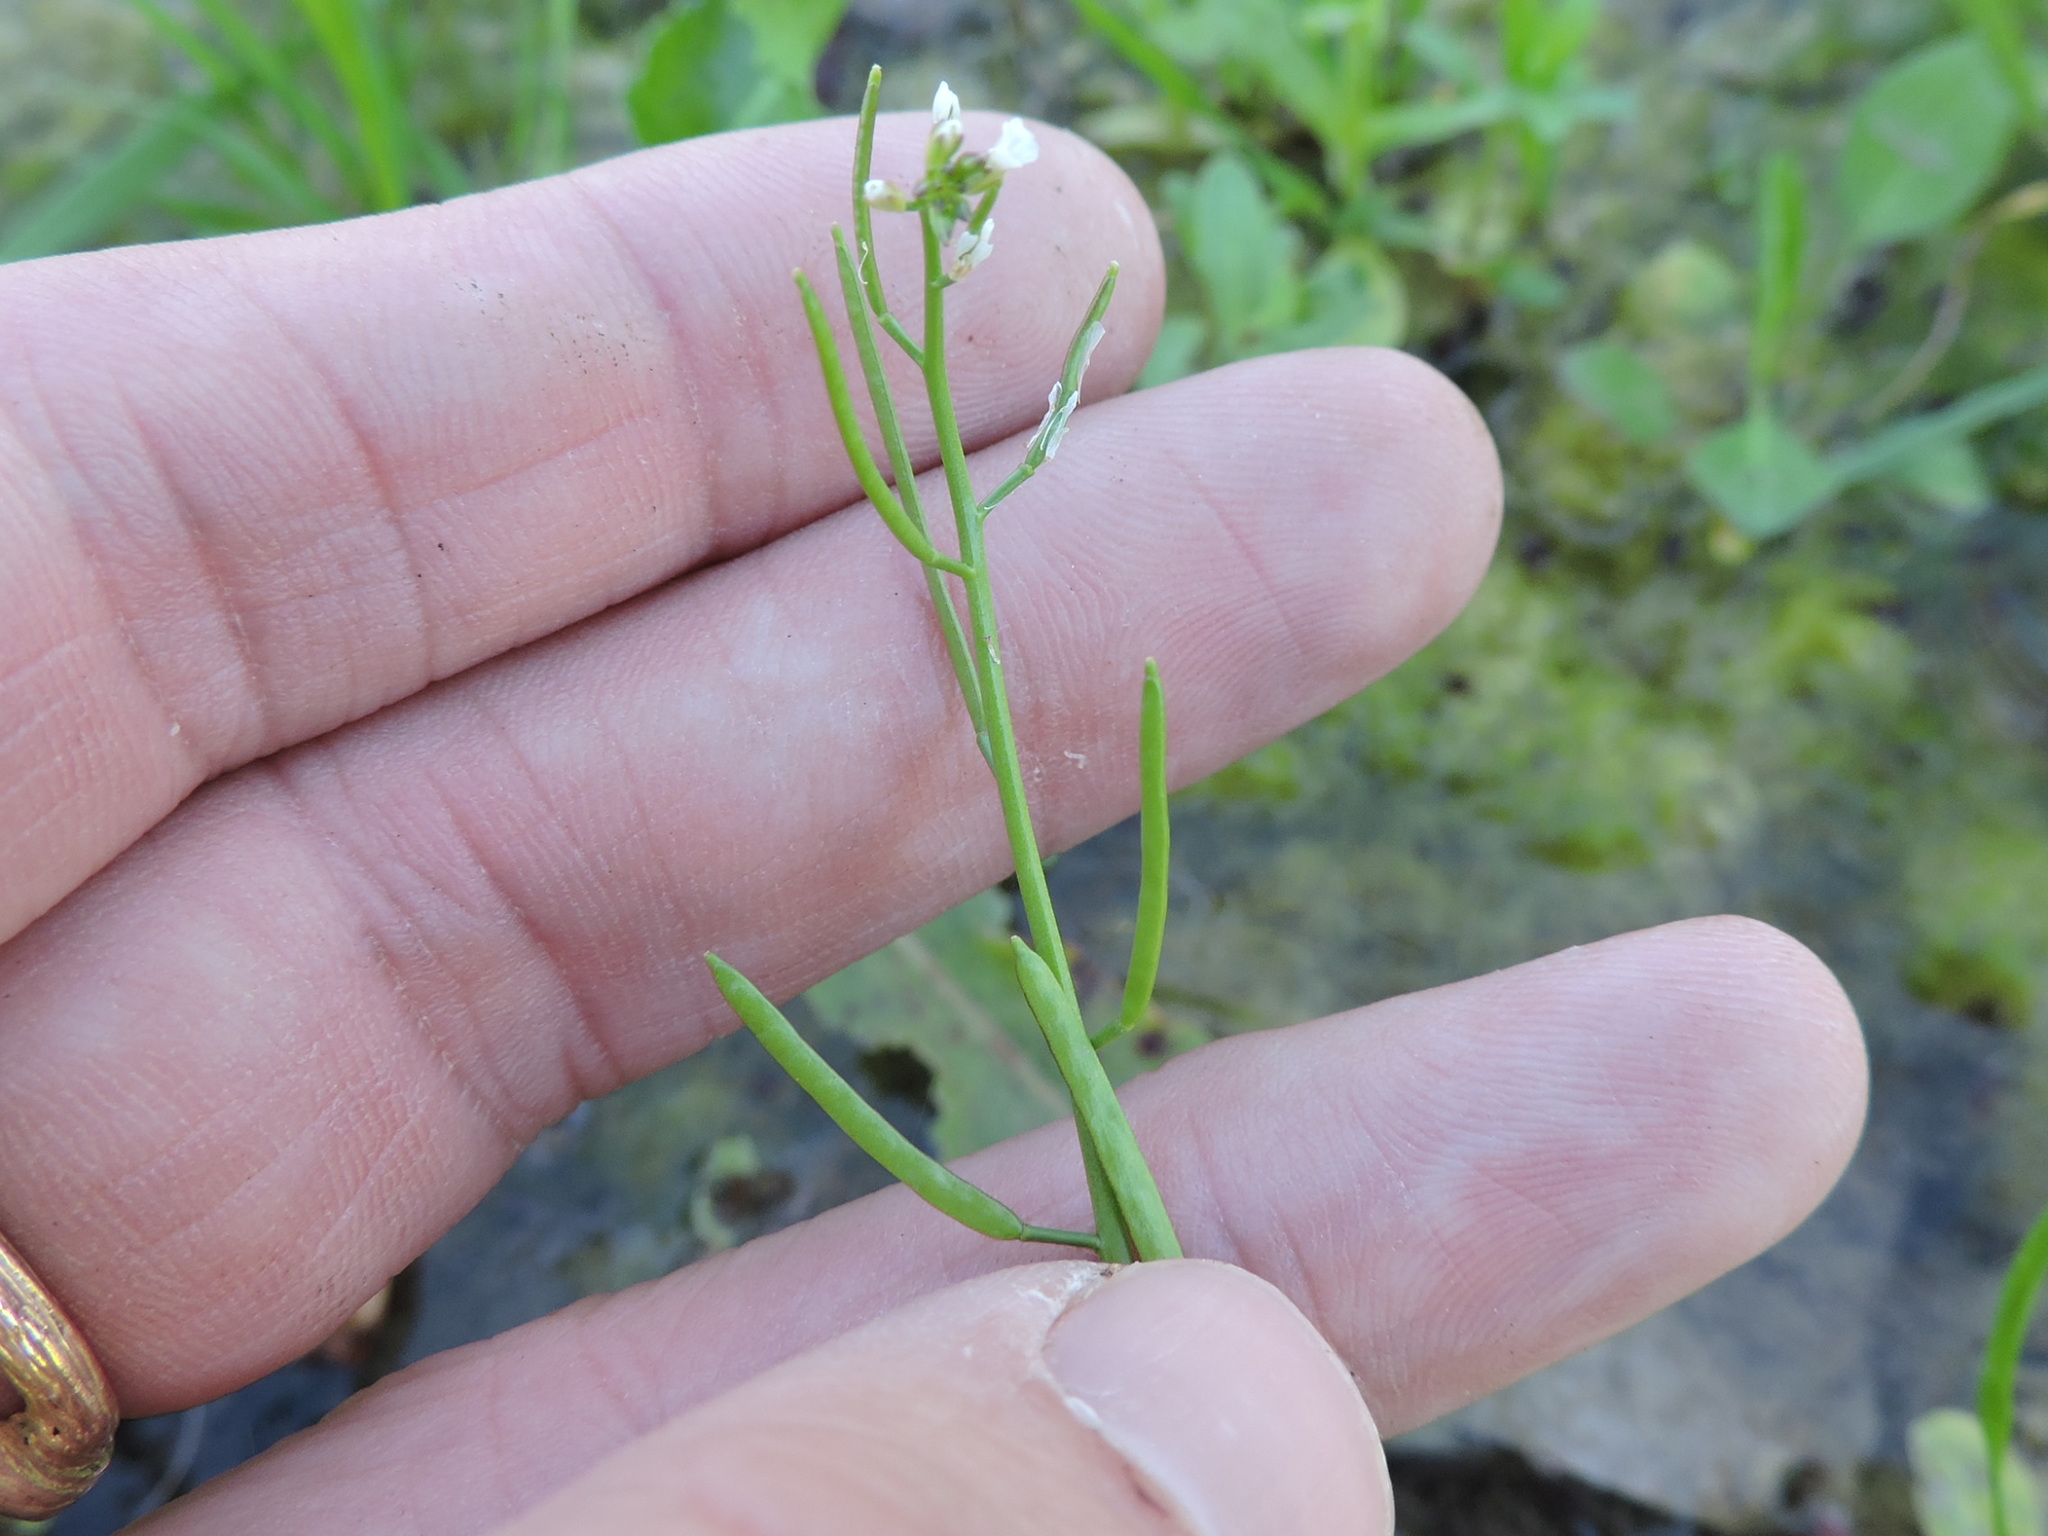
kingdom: Plantae
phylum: Tracheophyta
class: Magnoliopsida
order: Brassicales
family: Brassicaceae
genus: Cardamine
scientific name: Cardamine parviflora
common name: Sand bittercress
